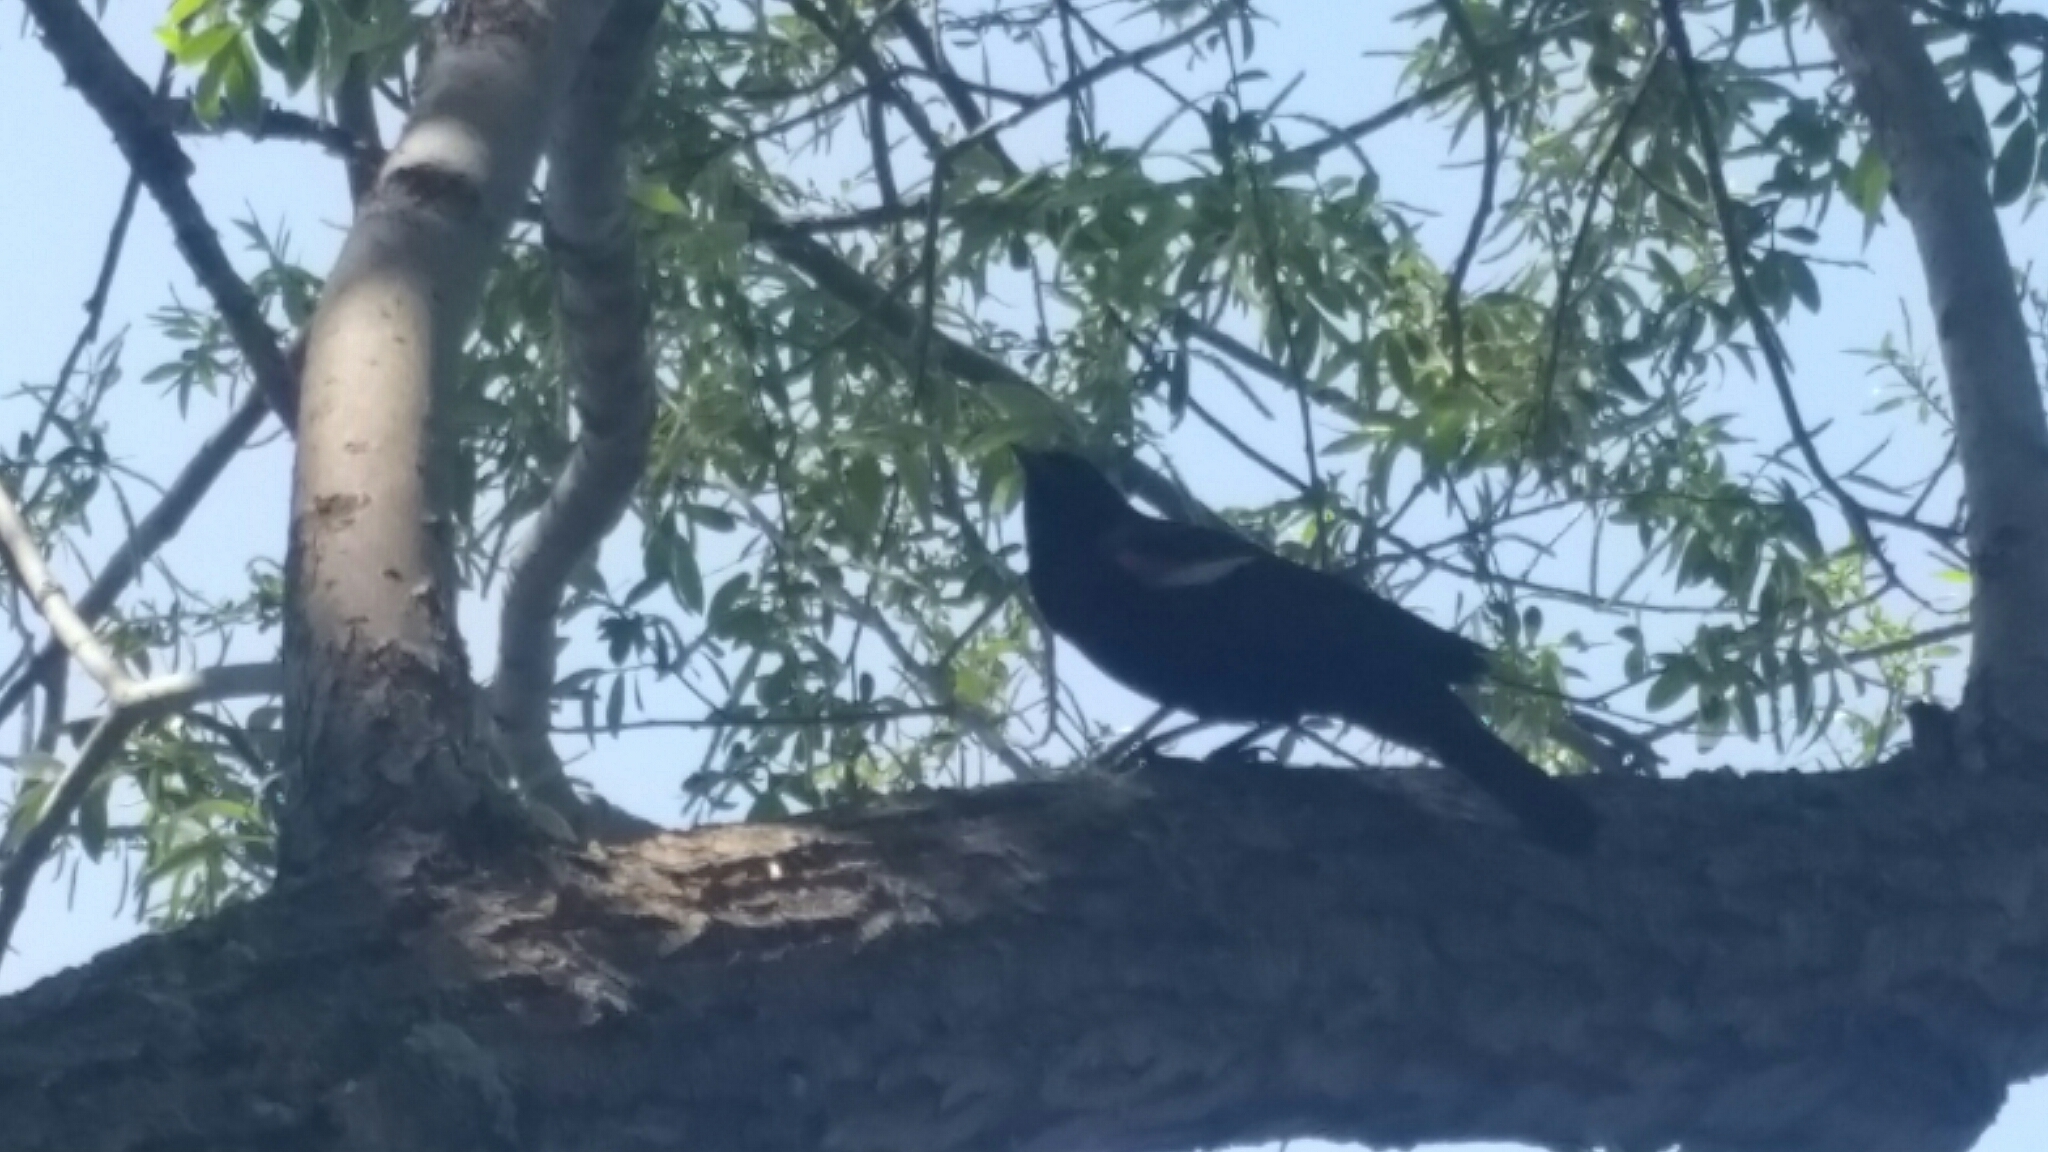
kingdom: Animalia
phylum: Chordata
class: Aves
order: Passeriformes
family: Icteridae
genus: Agelaius
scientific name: Agelaius phoeniceus
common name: Red-winged blackbird
